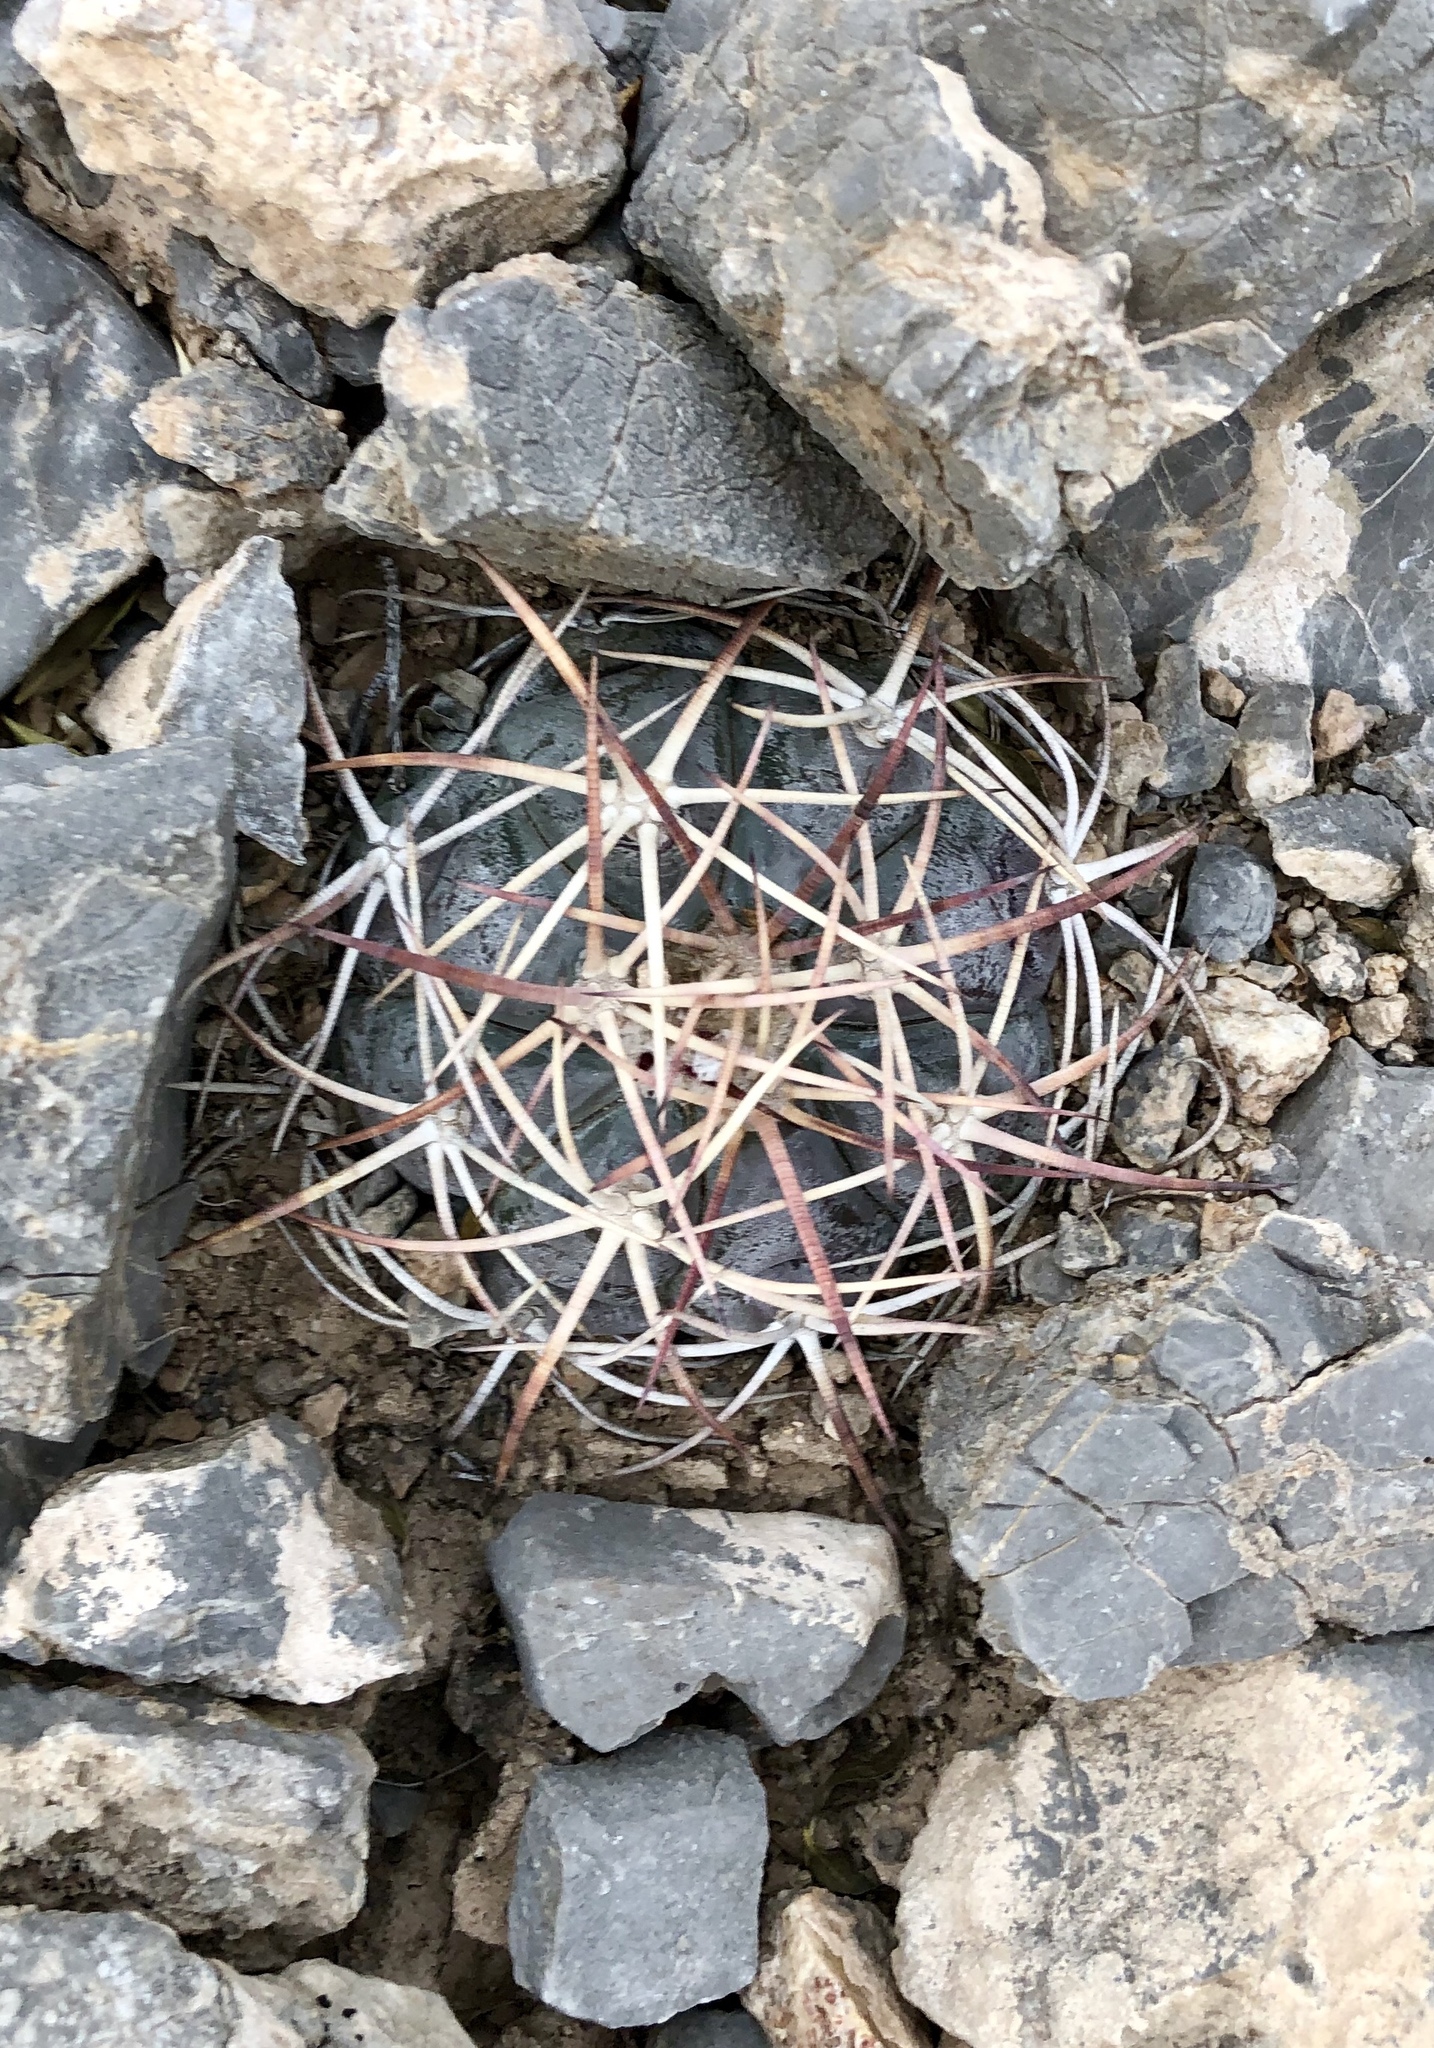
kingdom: Plantae
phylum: Tracheophyta
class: Magnoliopsida
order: Caryophyllales
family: Cactaceae
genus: Echinocactus
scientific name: Echinocactus horizonthalonius
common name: Devilshead
